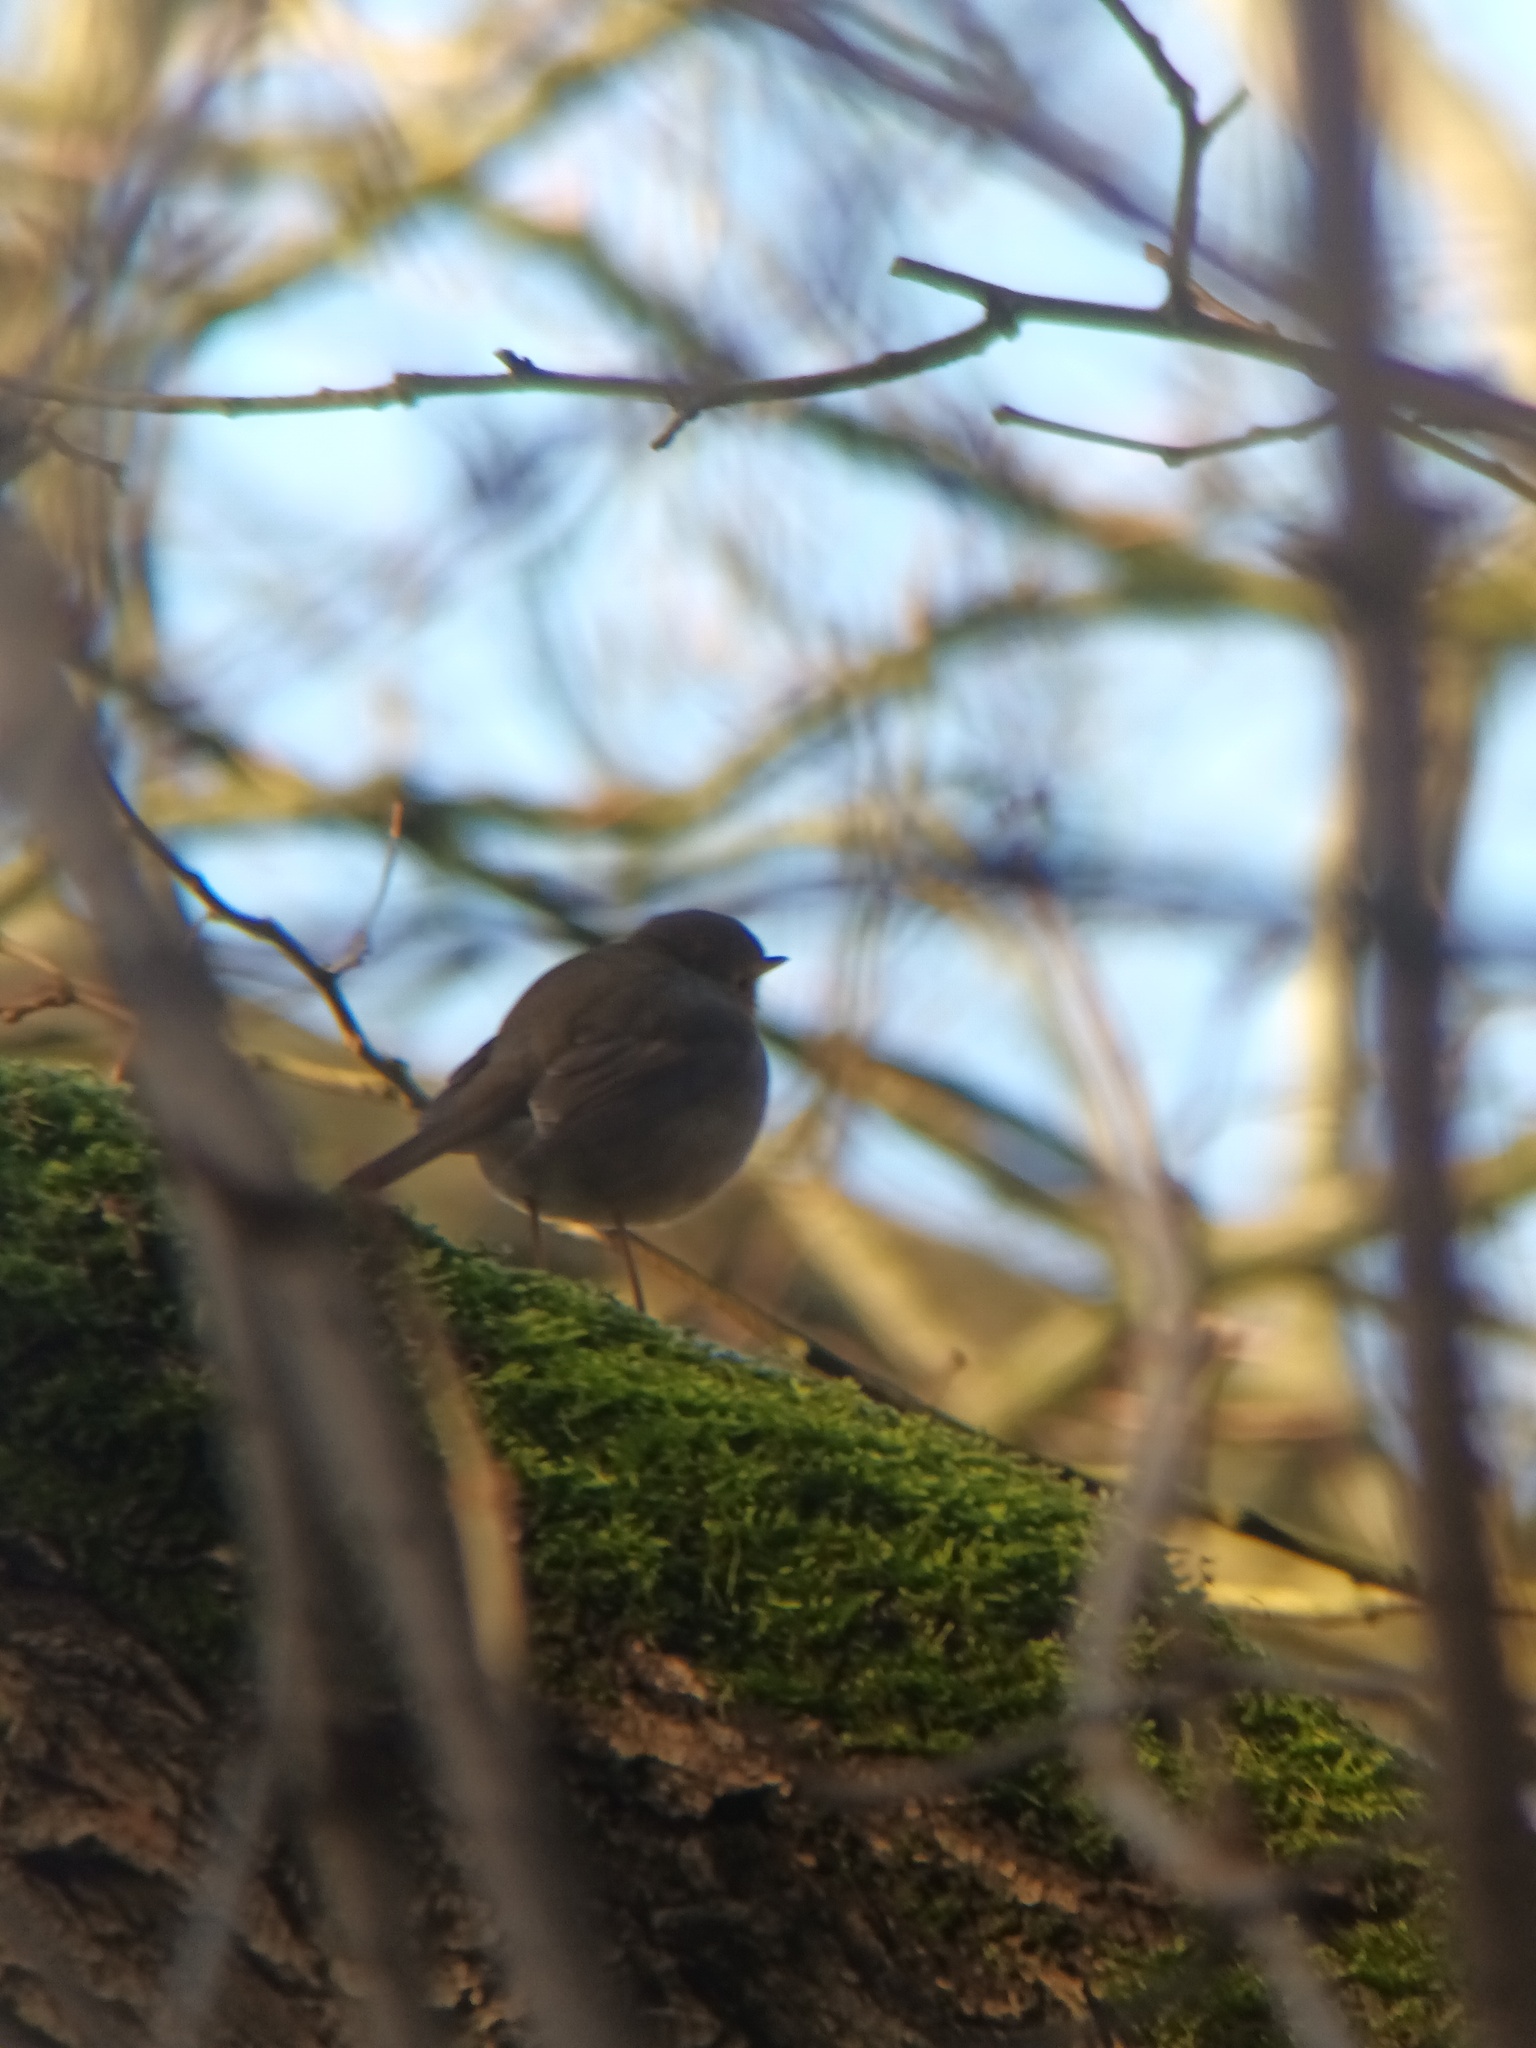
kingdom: Animalia
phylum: Chordata
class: Aves
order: Passeriformes
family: Muscicapidae
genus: Erithacus
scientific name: Erithacus rubecula
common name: European robin
